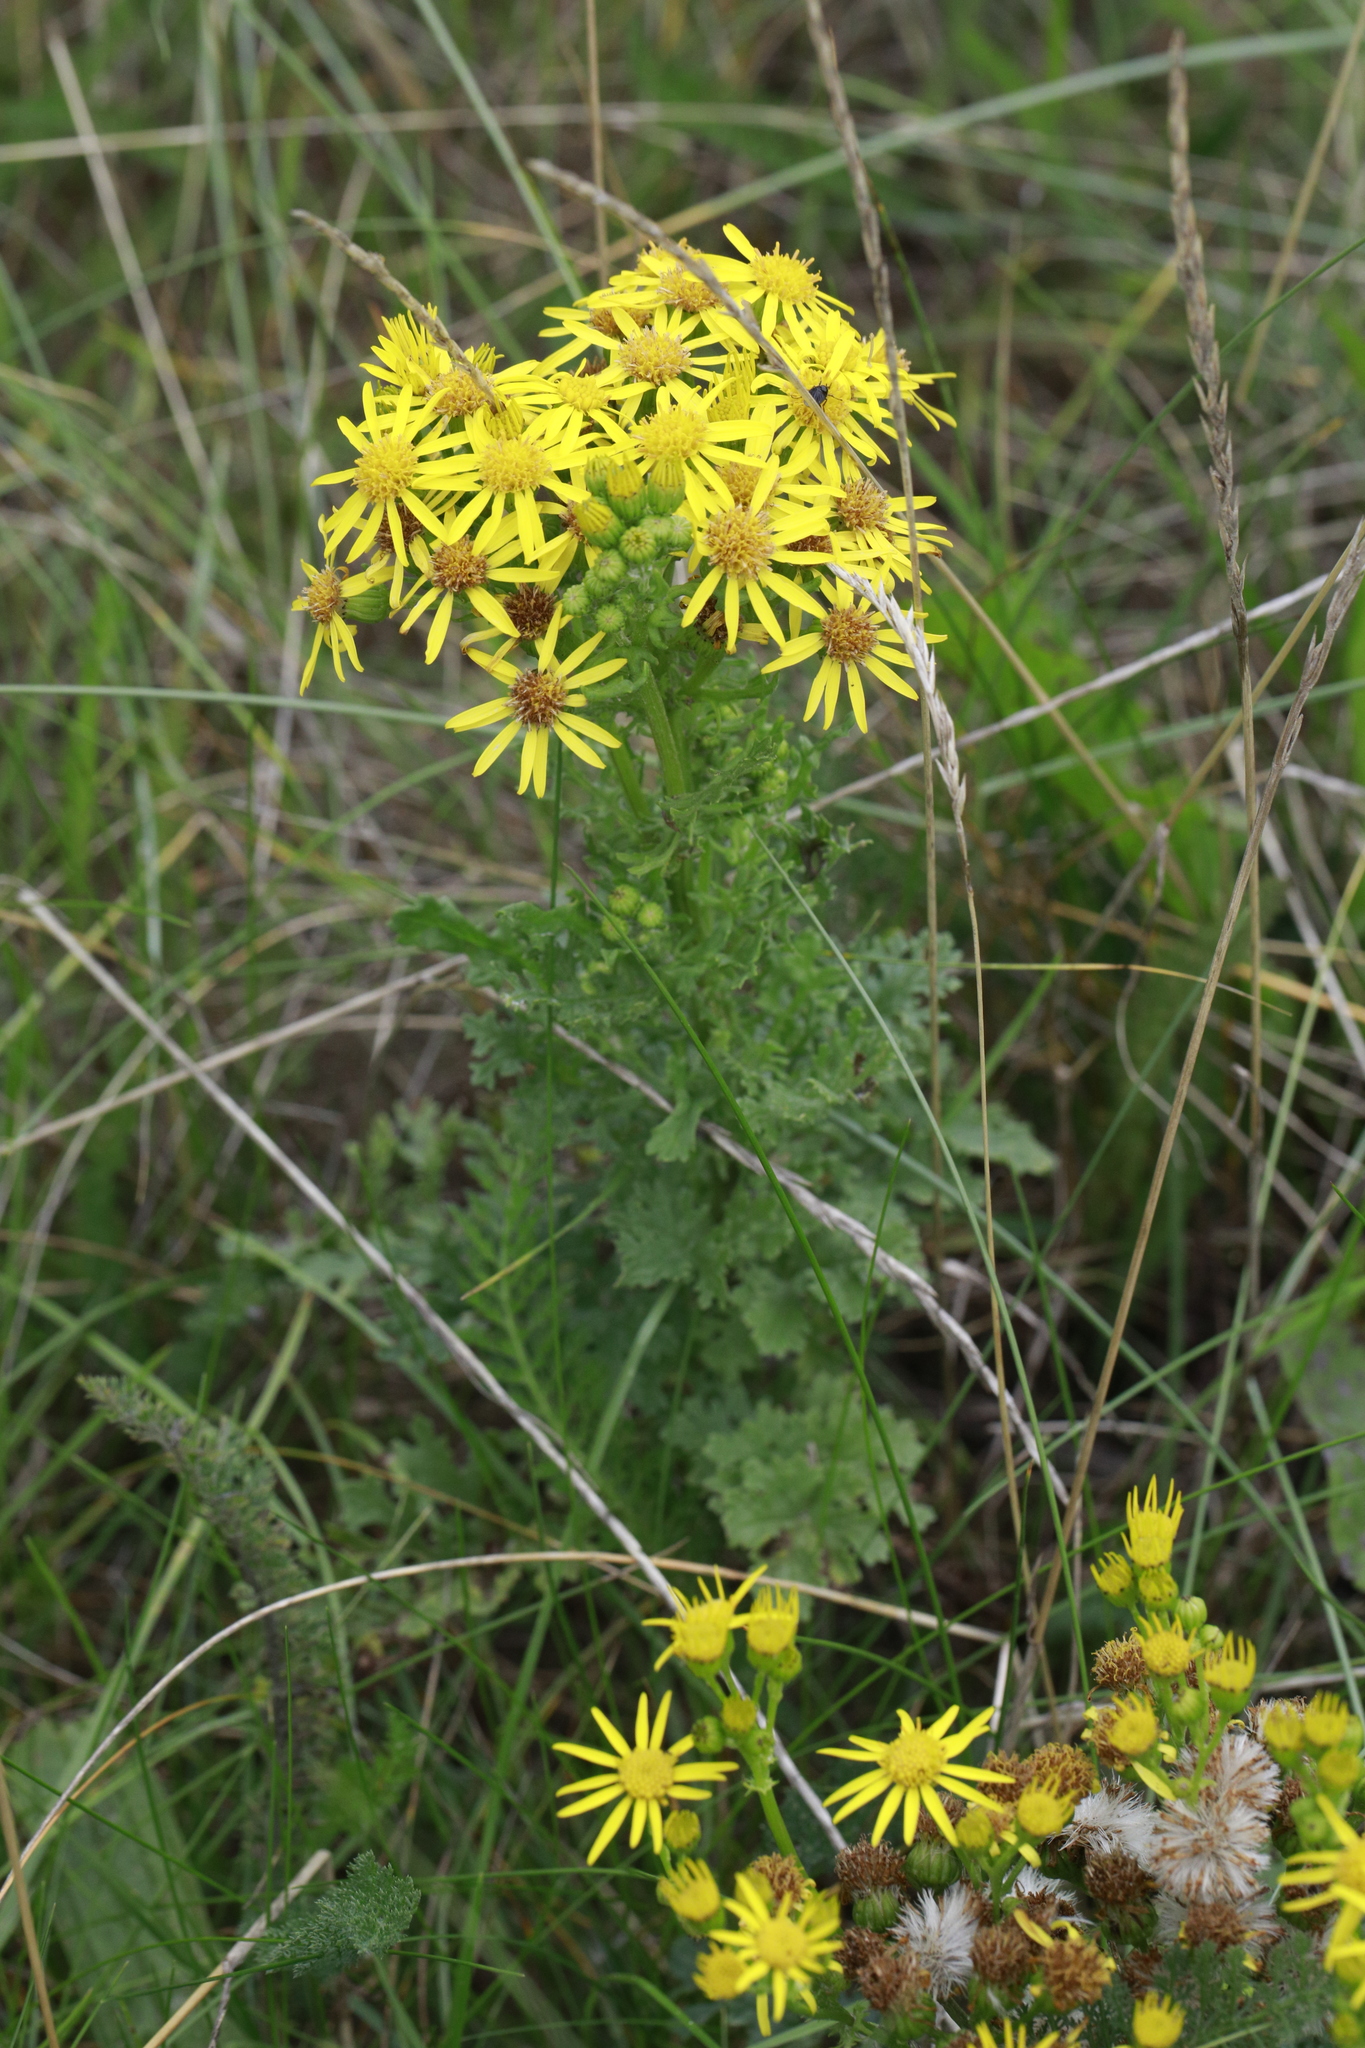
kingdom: Plantae
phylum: Tracheophyta
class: Magnoliopsida
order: Asterales
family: Asteraceae
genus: Jacobaea
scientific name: Jacobaea vulgaris
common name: Stinking willie
